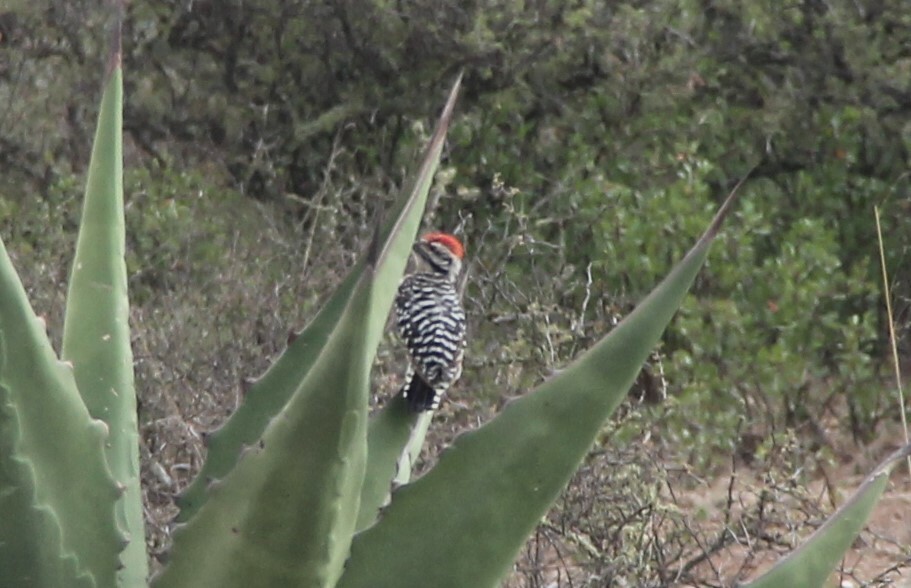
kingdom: Animalia
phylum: Chordata
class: Aves
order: Piciformes
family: Picidae
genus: Dryobates
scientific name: Dryobates scalaris
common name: Ladder-backed woodpecker
